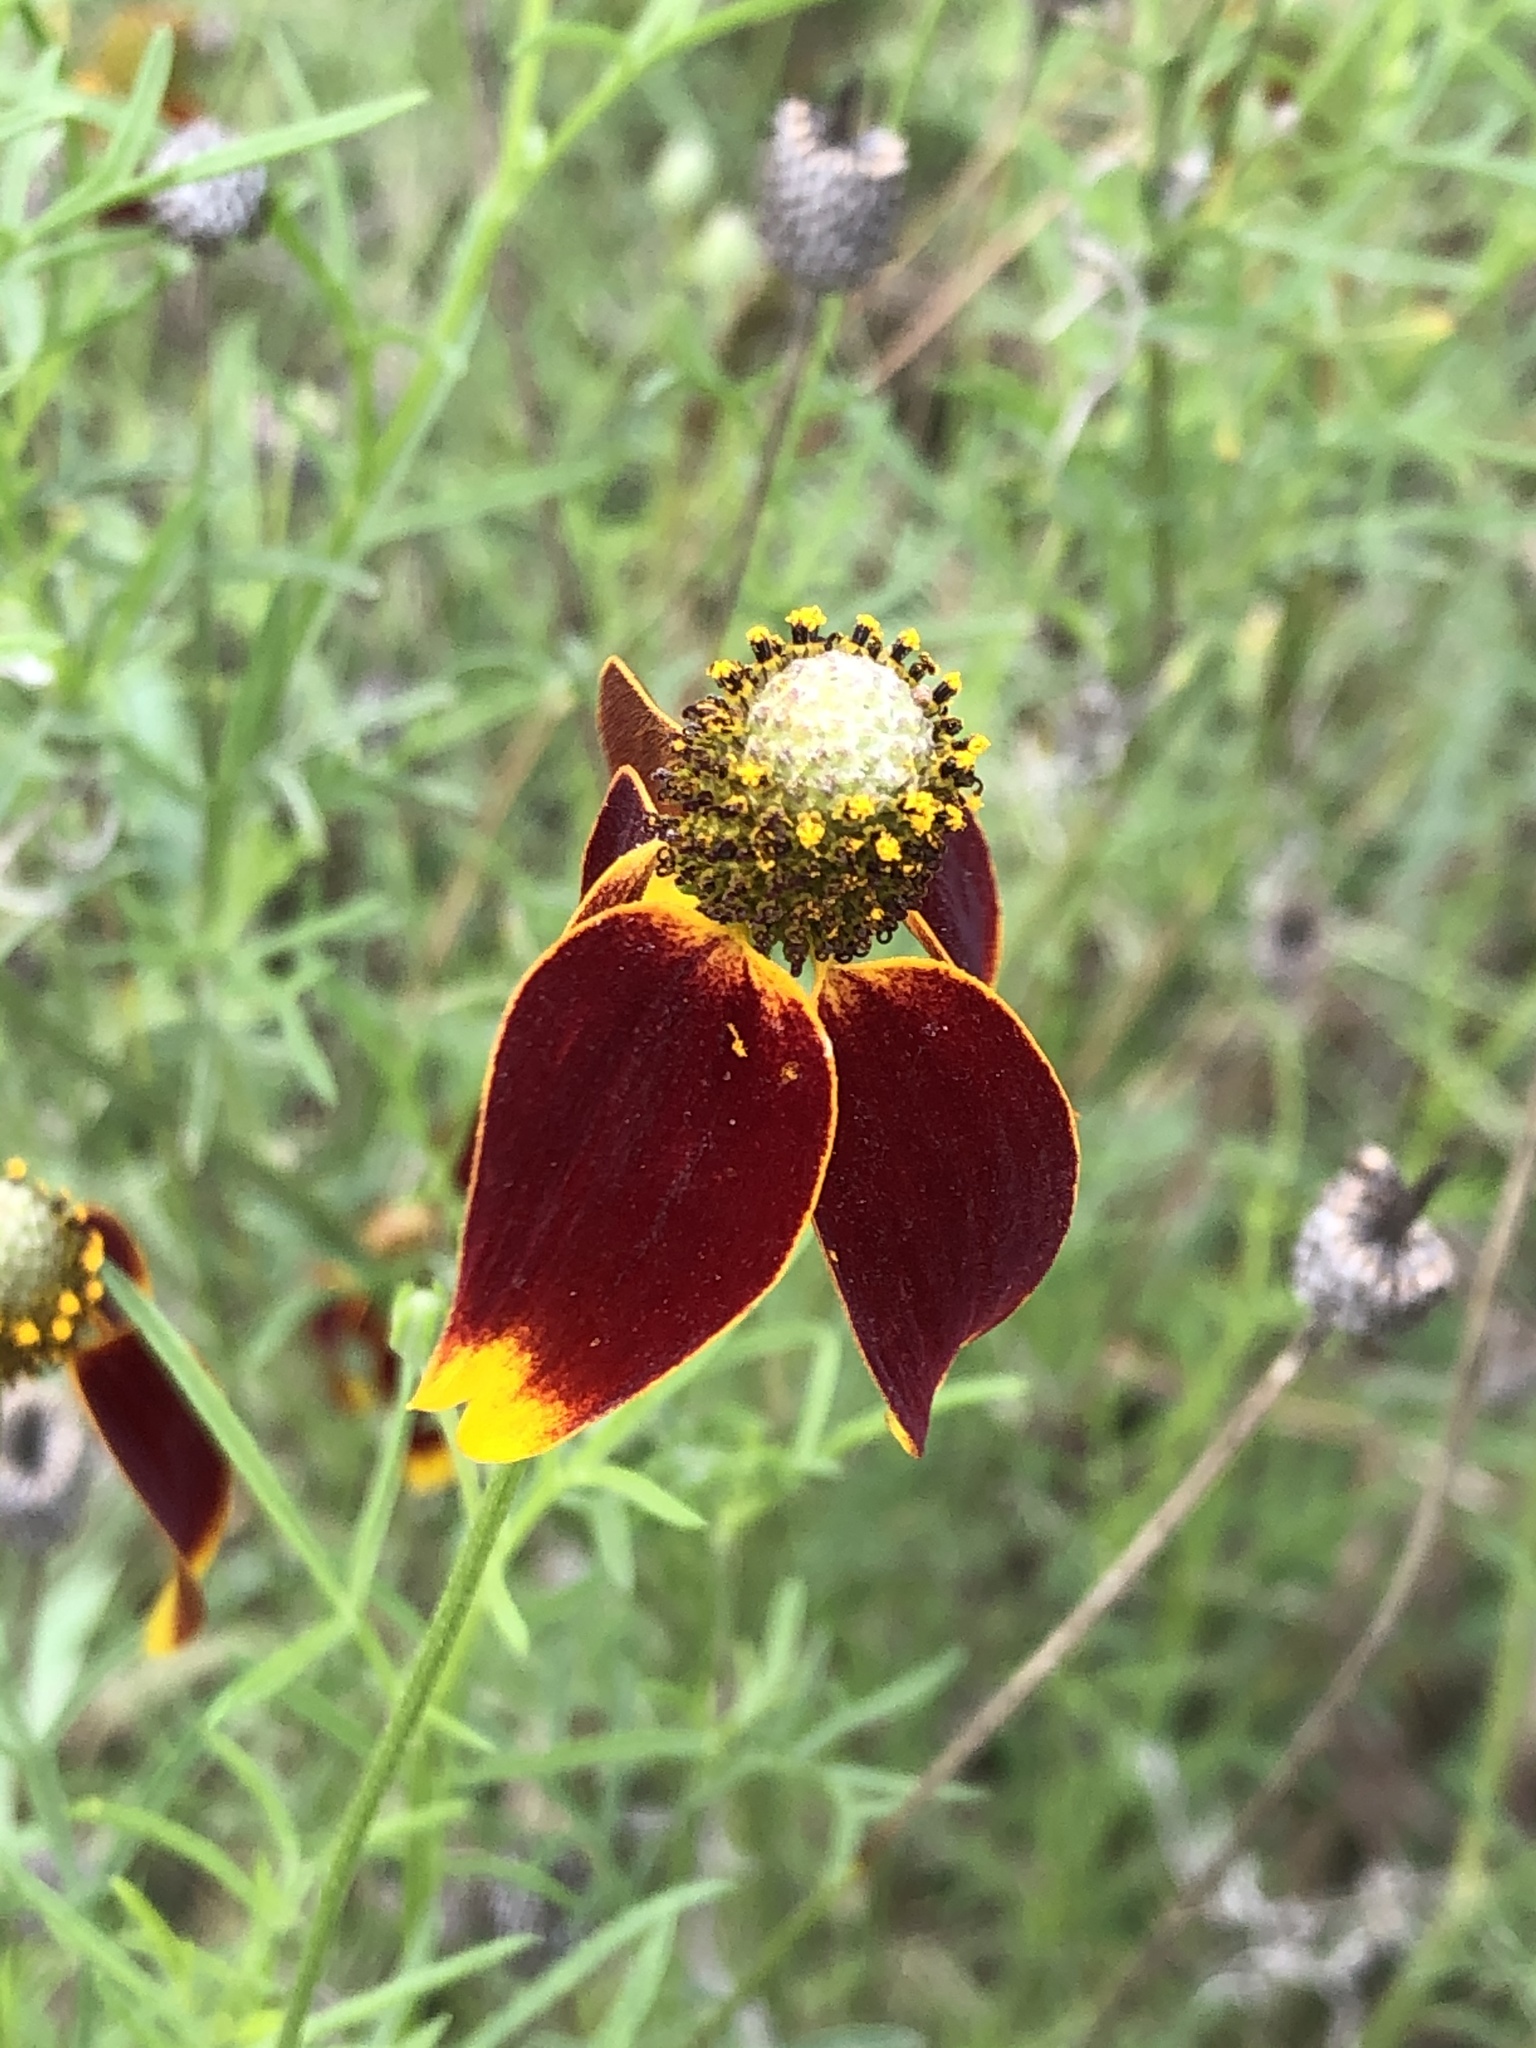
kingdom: Plantae
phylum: Tracheophyta
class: Magnoliopsida
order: Asterales
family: Asteraceae
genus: Ratibida
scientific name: Ratibida columnifera
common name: Prairie coneflower
